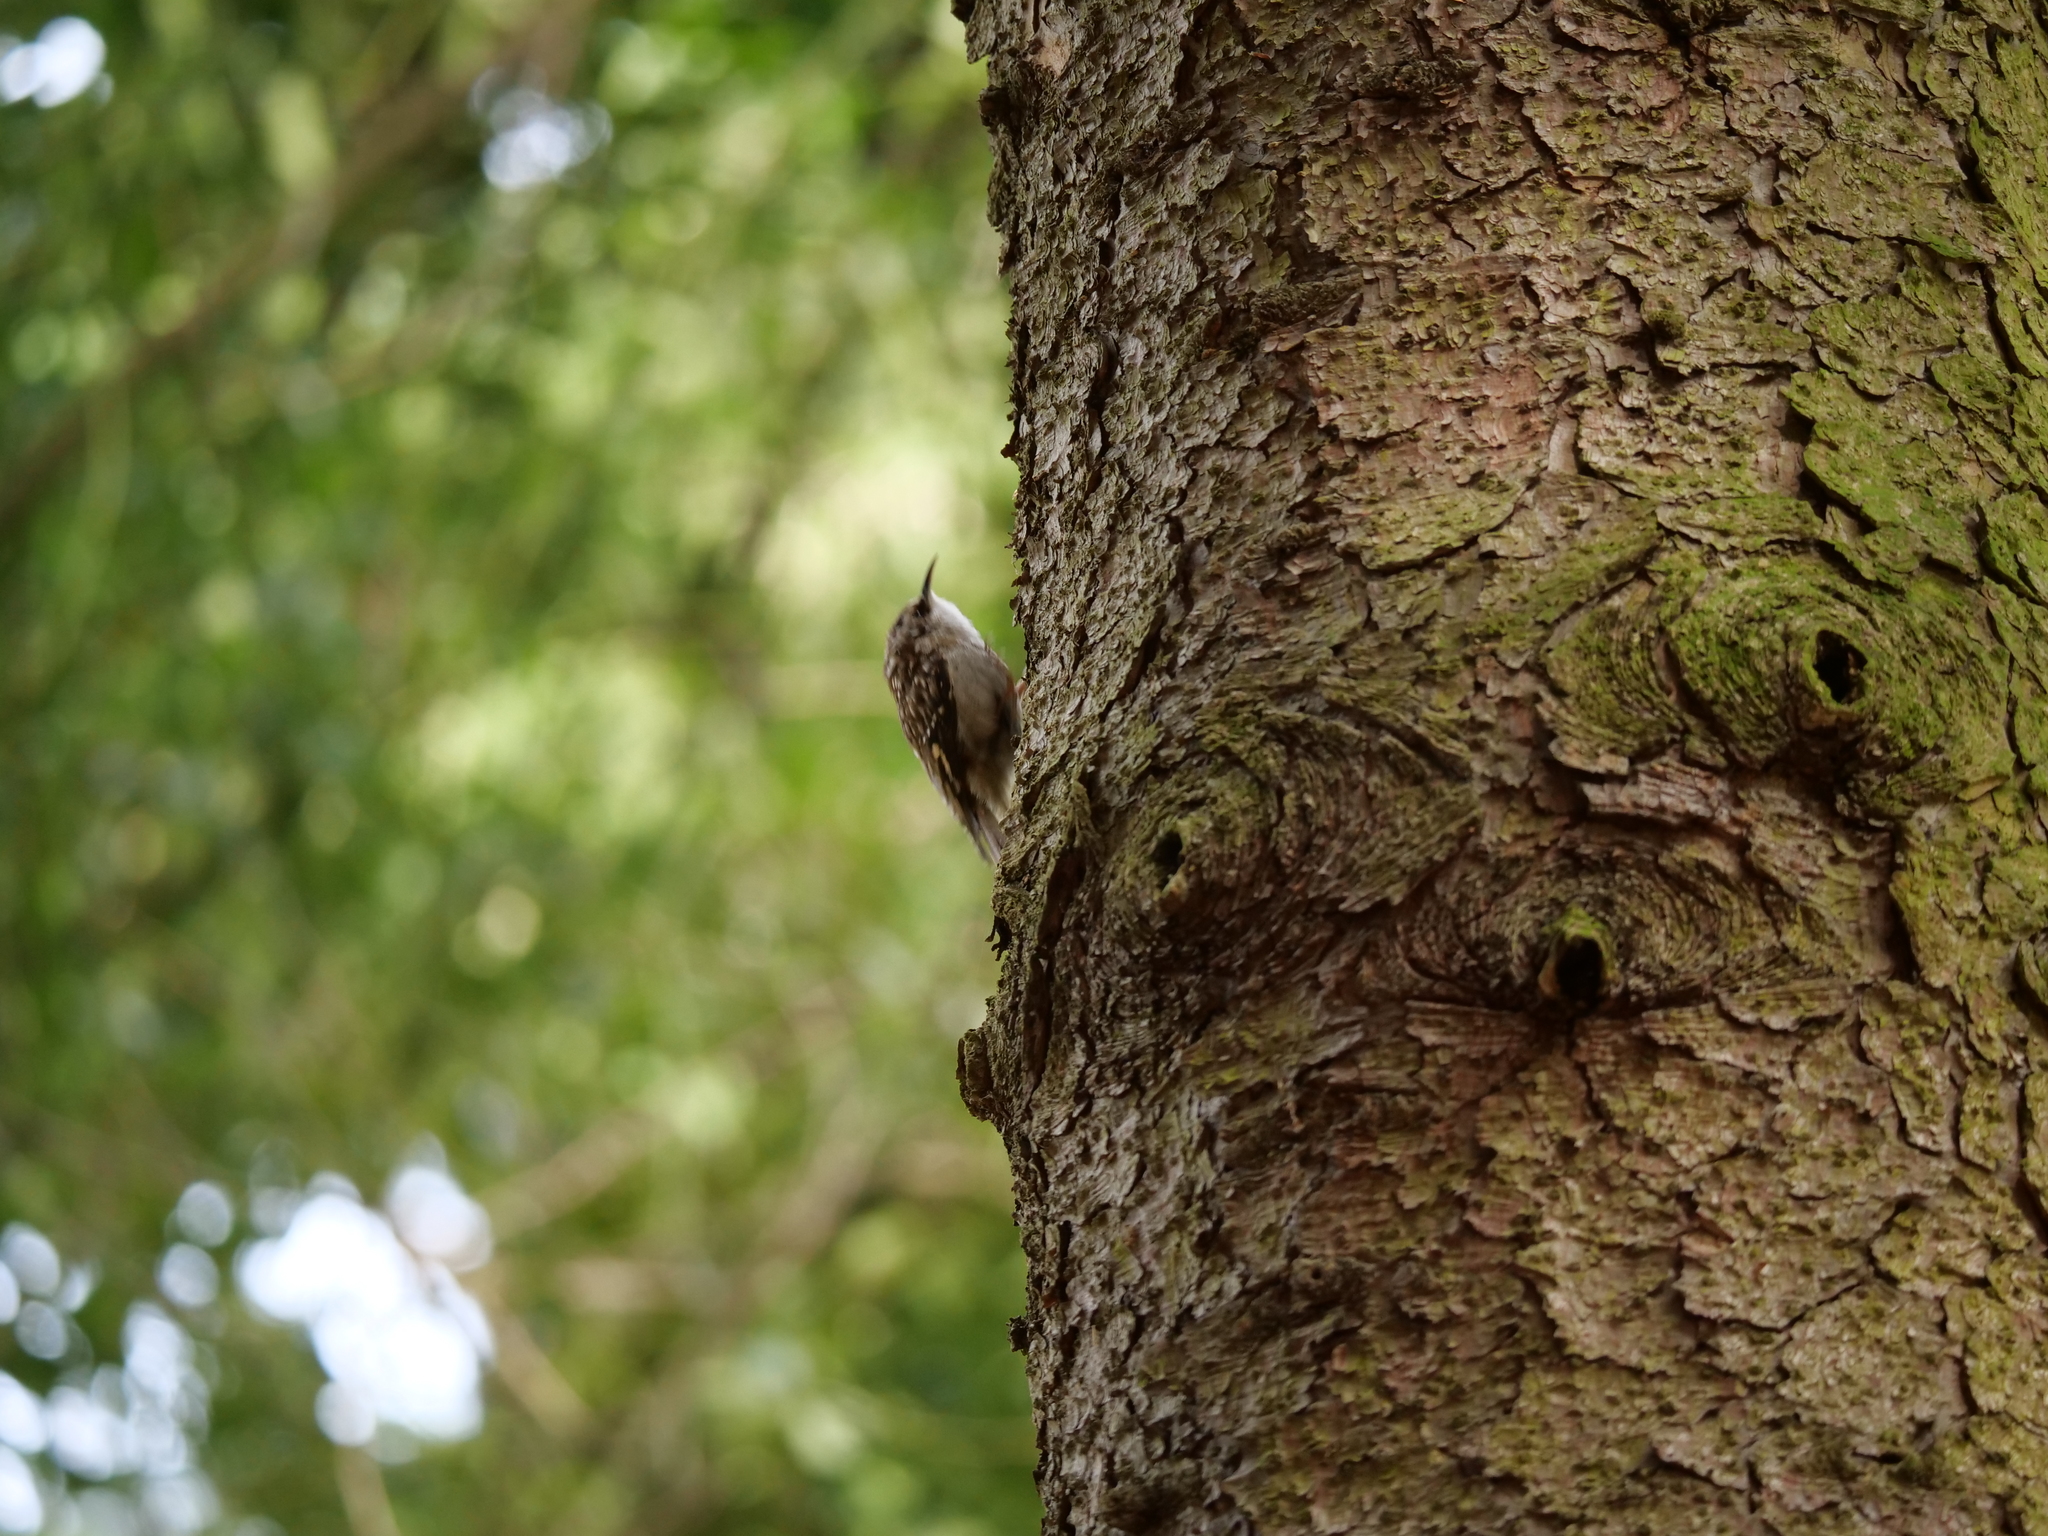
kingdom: Animalia
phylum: Chordata
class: Aves
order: Passeriformes
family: Certhiidae
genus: Certhia
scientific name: Certhia americana
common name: Brown creeper
